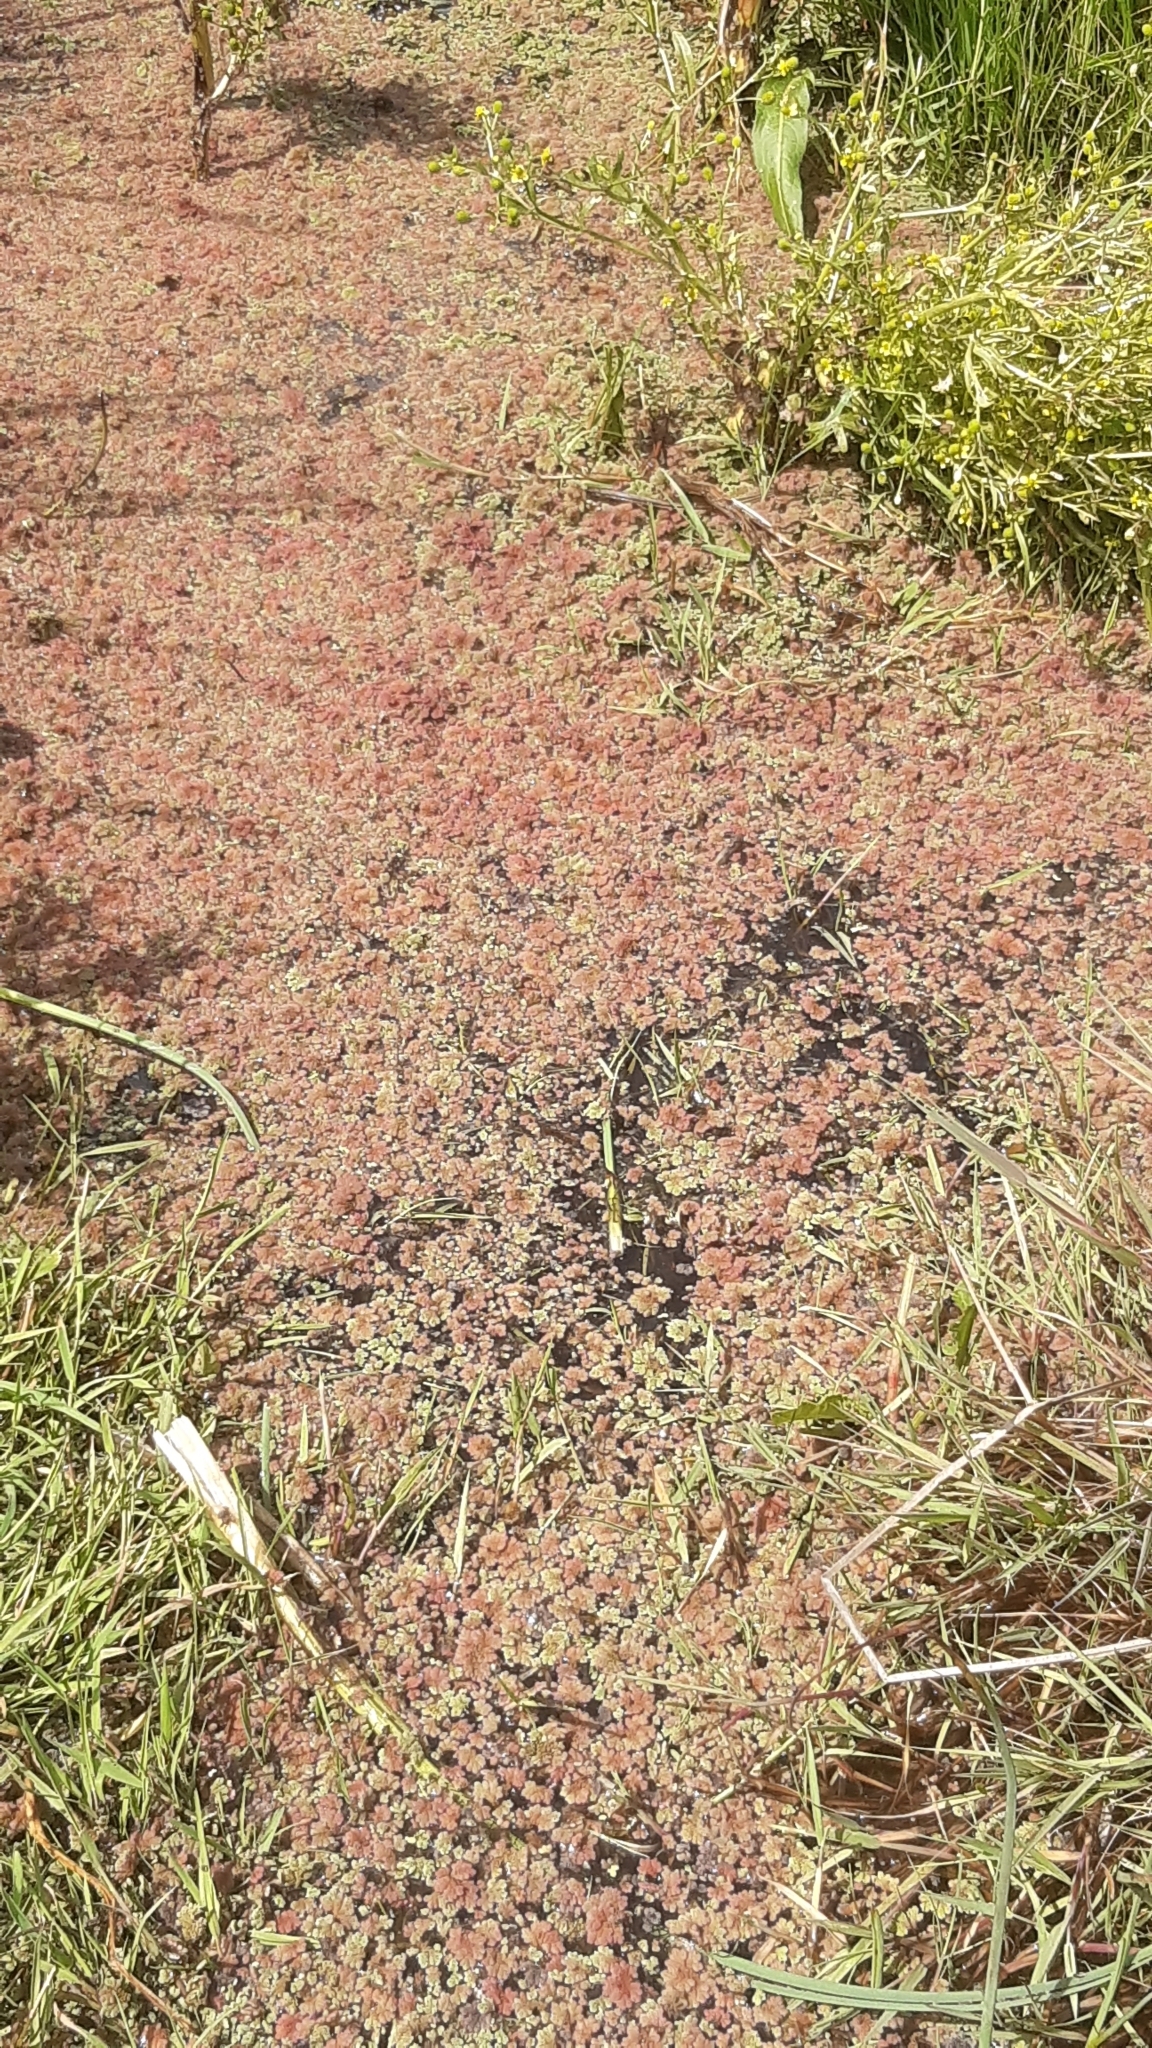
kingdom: Plantae
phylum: Tracheophyta
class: Polypodiopsida
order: Salviniales
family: Salviniaceae
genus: Azolla
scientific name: Azolla rubra
